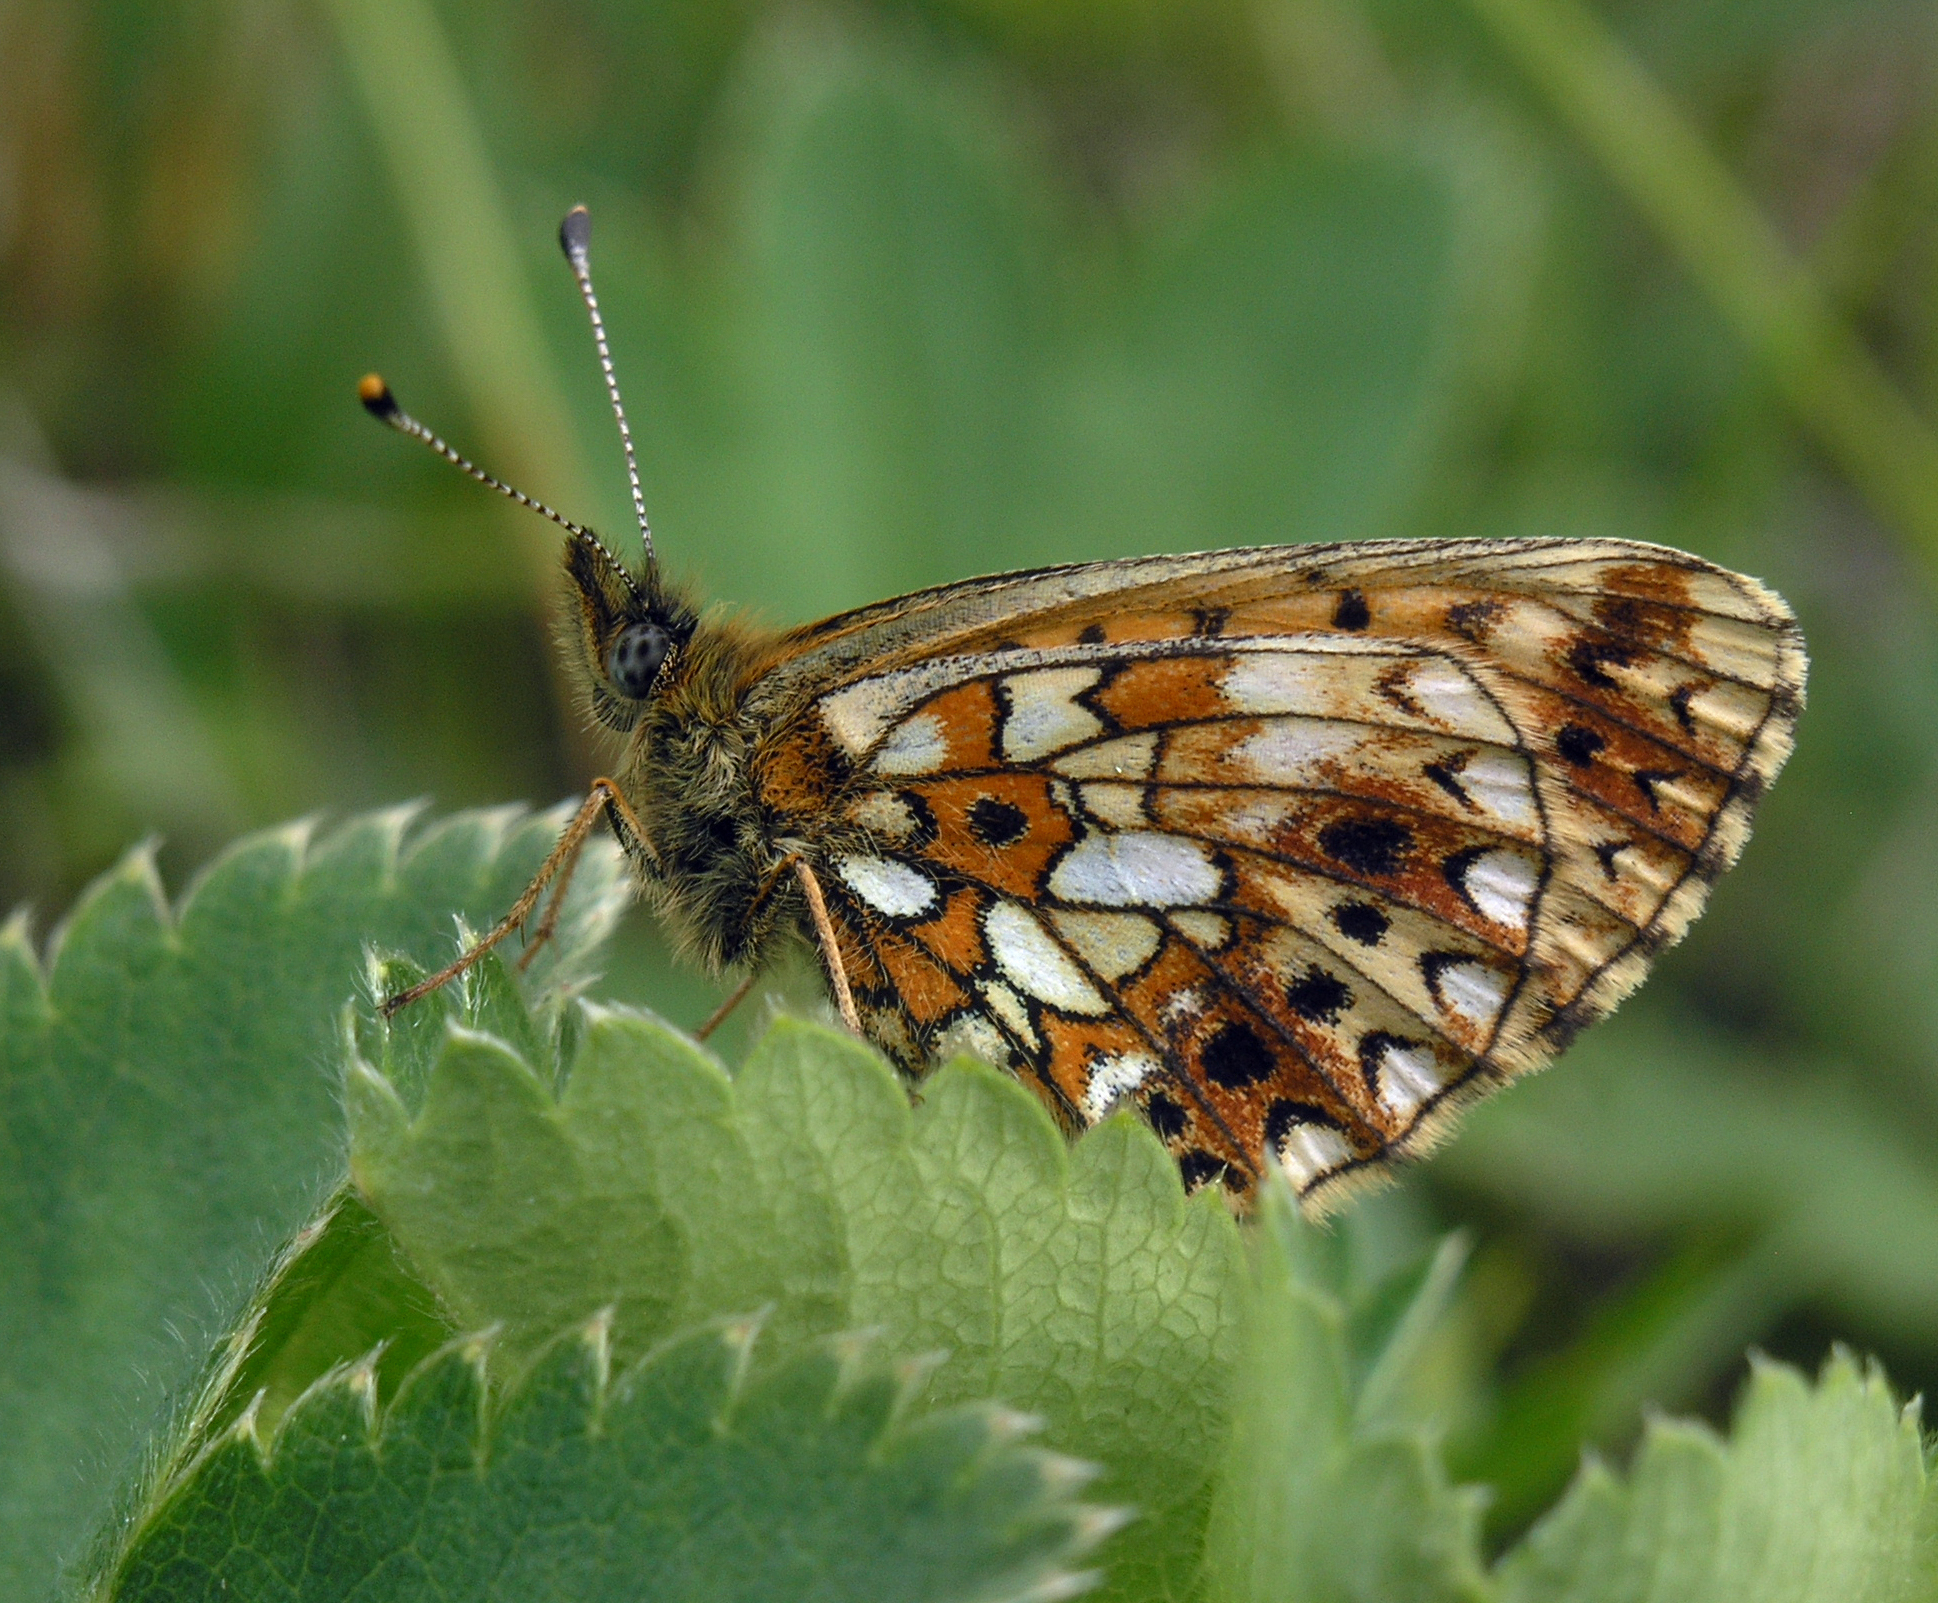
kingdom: Animalia
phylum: Arthropoda
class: Insecta
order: Lepidoptera
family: Nymphalidae
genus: Boloria
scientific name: Boloria selene
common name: Small pearl-bordered fritillary
